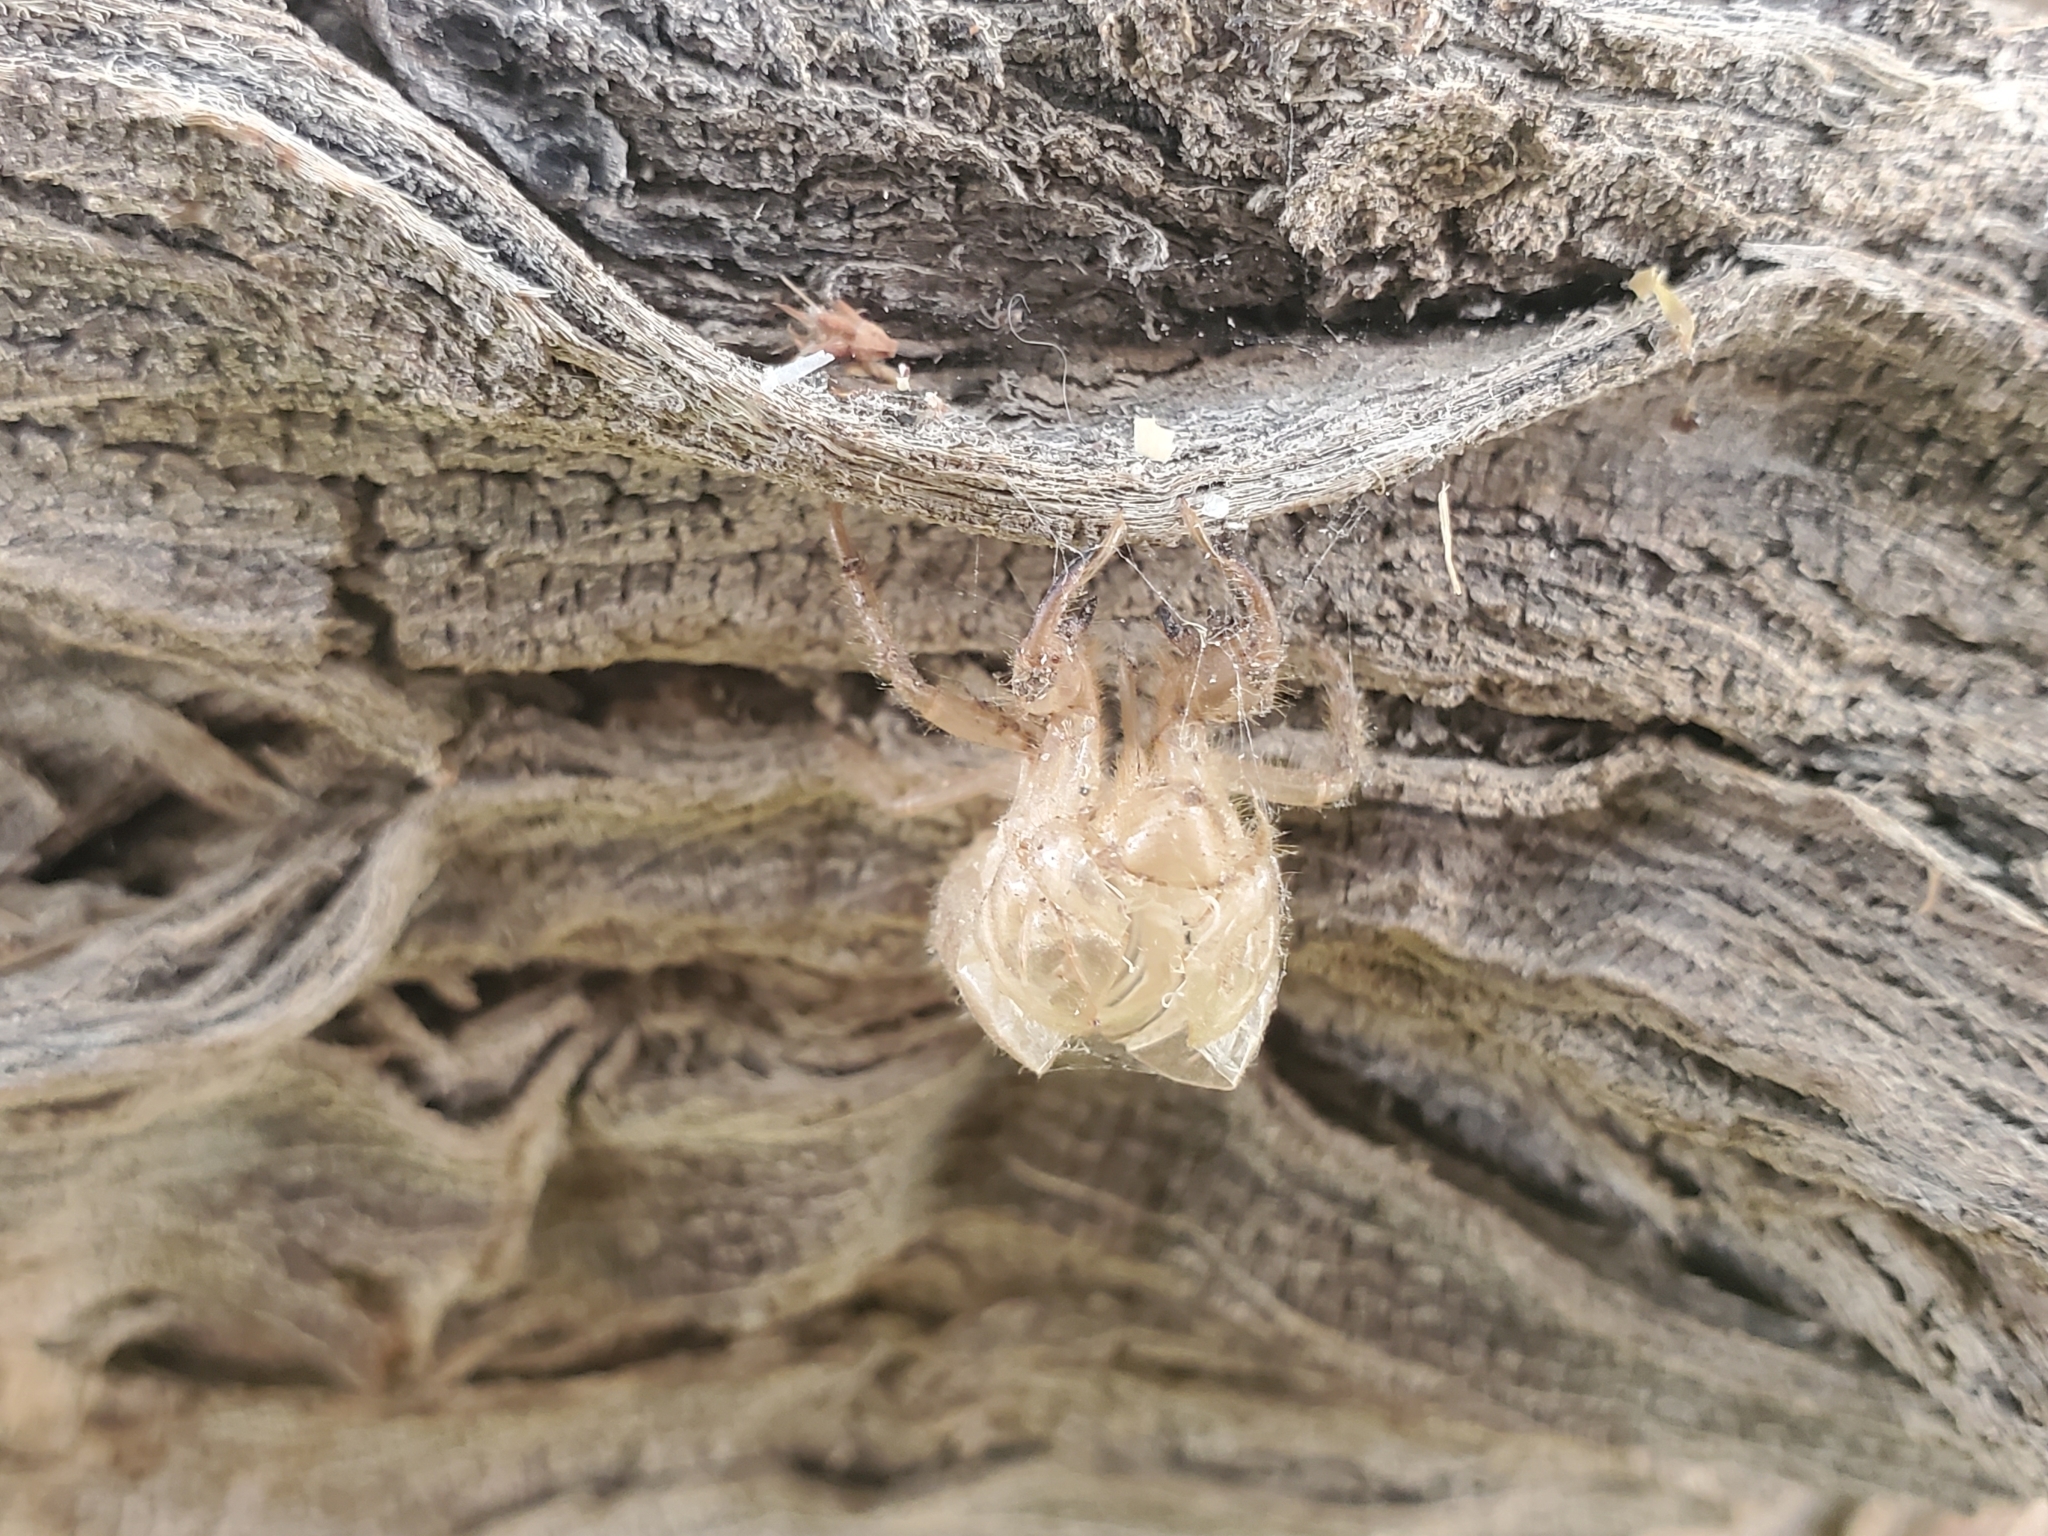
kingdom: Animalia
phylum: Arthropoda
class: Insecta
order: Hemiptera
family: Cicadidae
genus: Diceroprocta
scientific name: Diceroprocta apache
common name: Desert cicada
